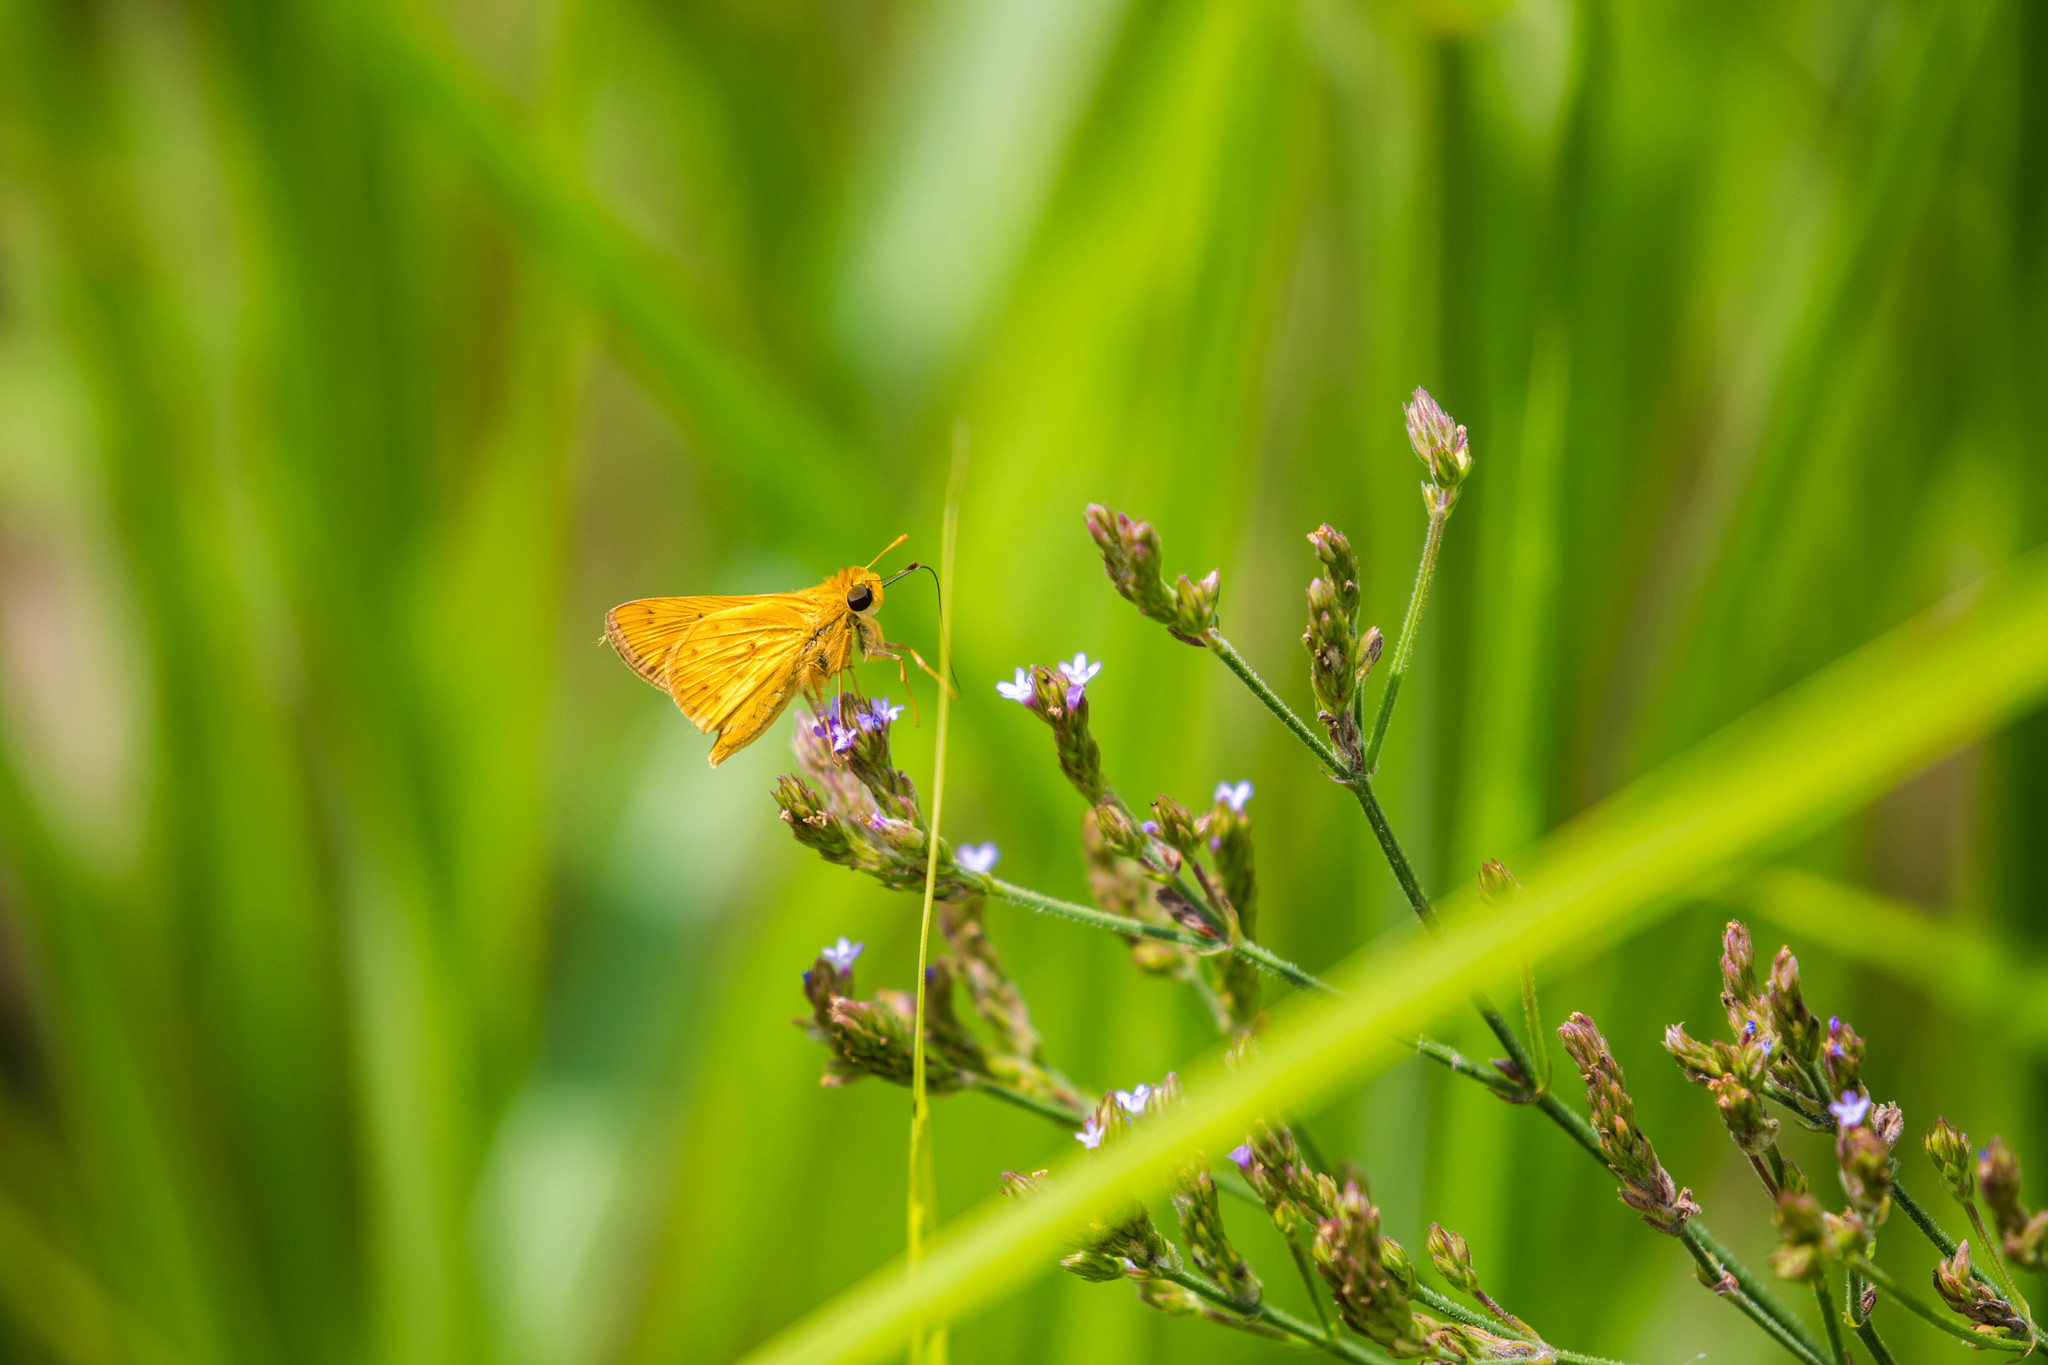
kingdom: Animalia
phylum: Arthropoda
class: Insecta
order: Lepidoptera
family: Hesperiidae
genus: Hylephila
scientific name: Hylephila phyleus
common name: Fiery skipper
